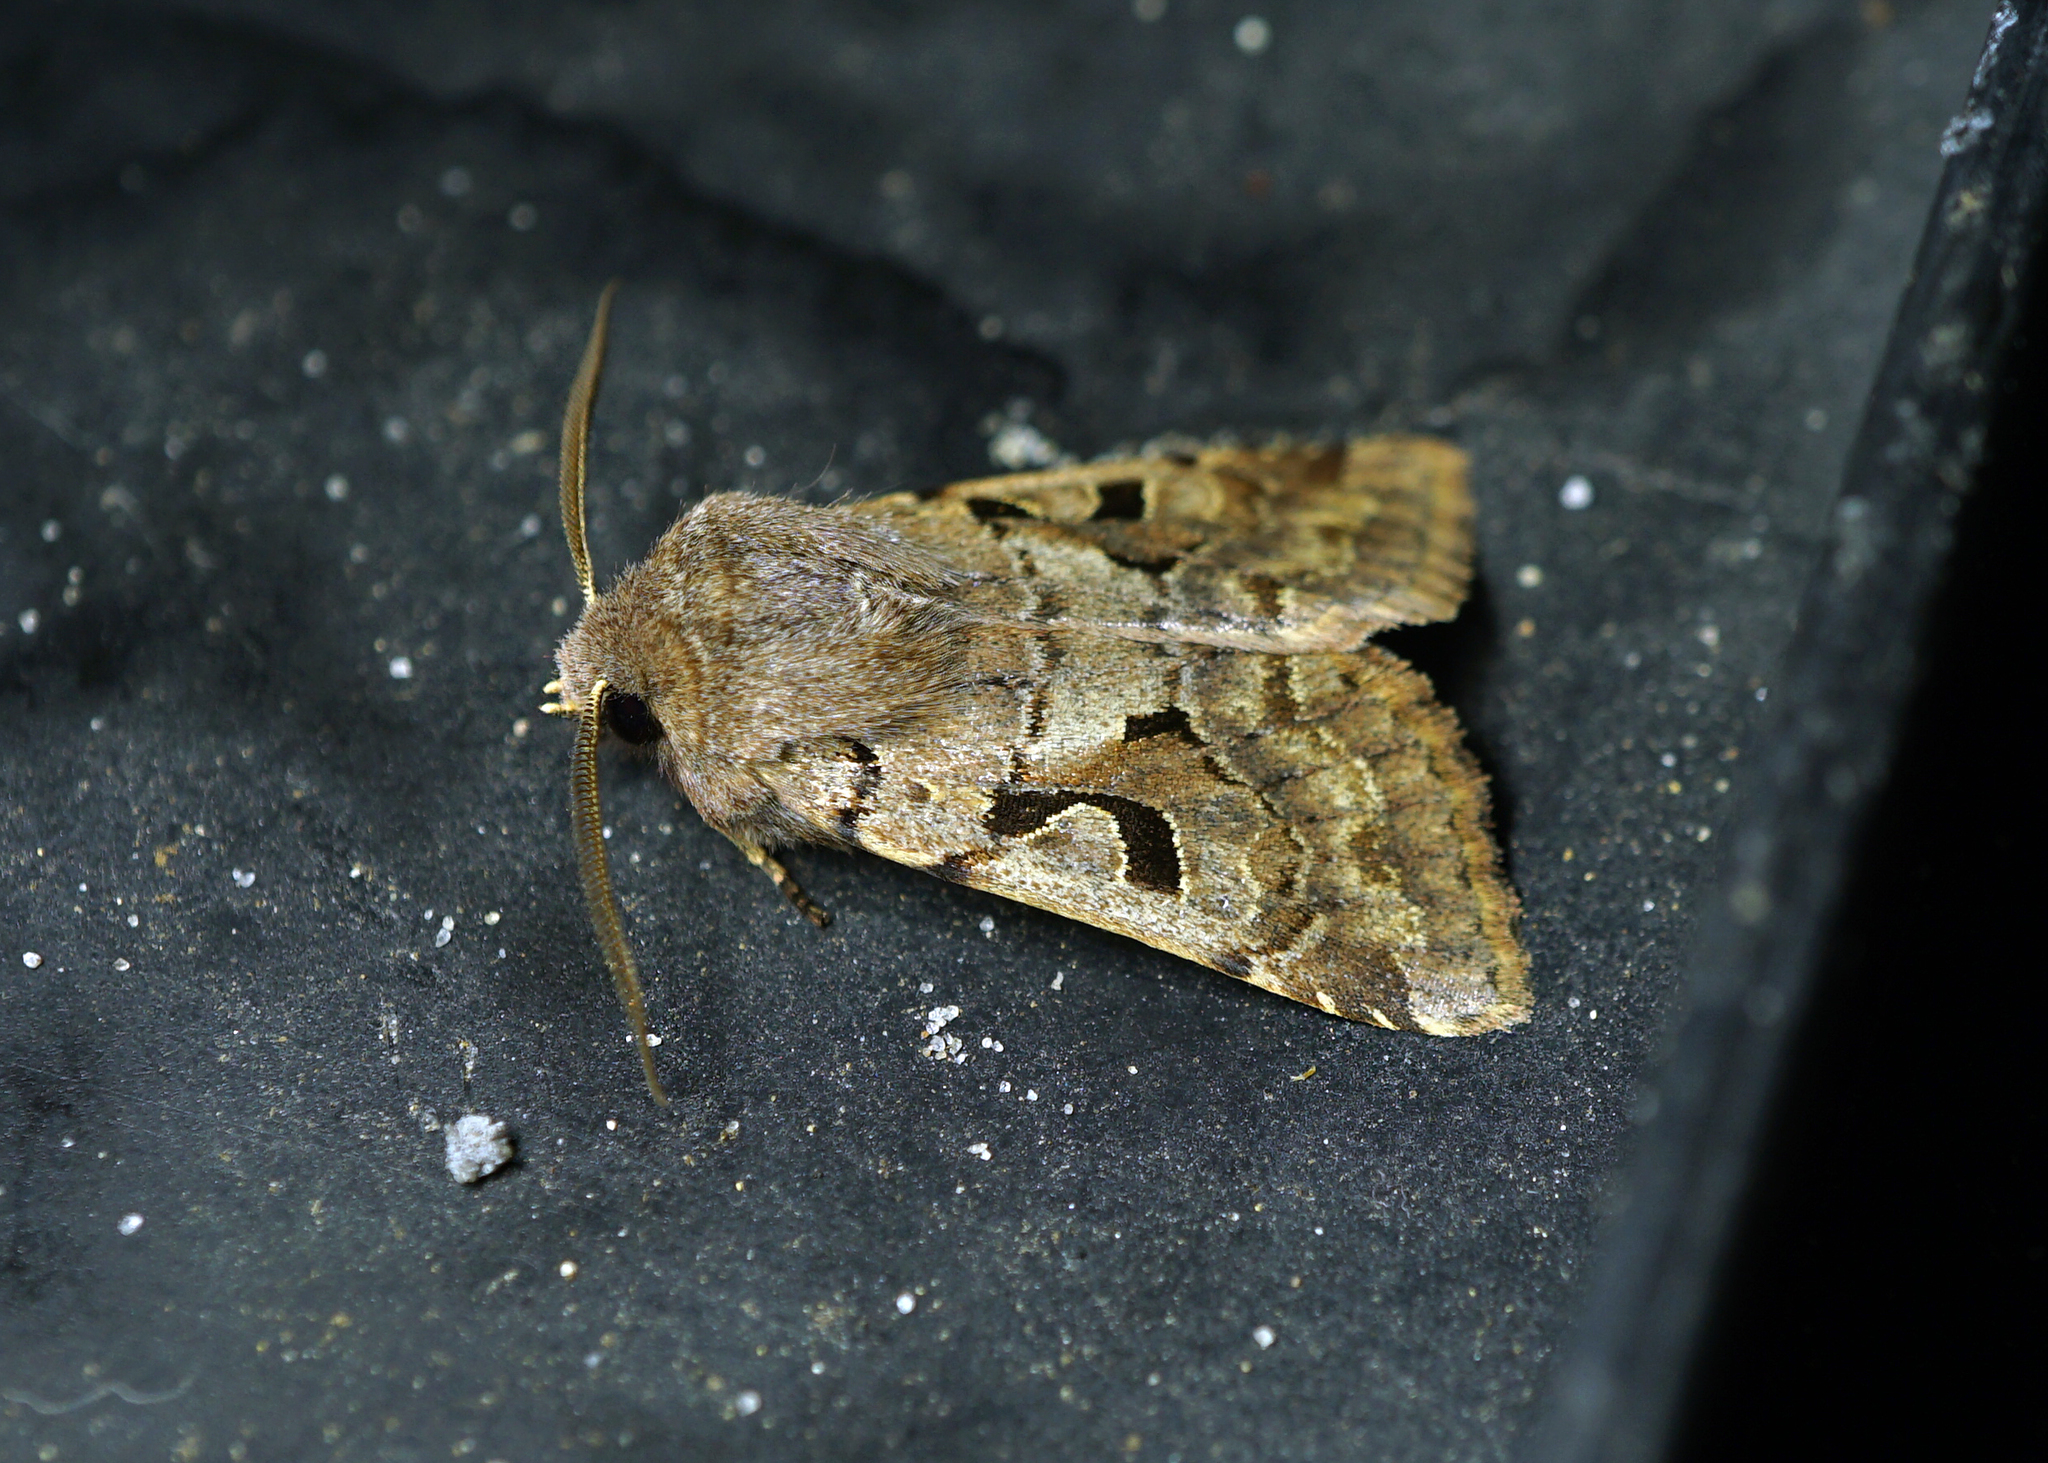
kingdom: Animalia
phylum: Arthropoda
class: Insecta
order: Lepidoptera
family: Noctuidae
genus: Orthosia
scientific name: Orthosia gothica
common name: Hebrew character
